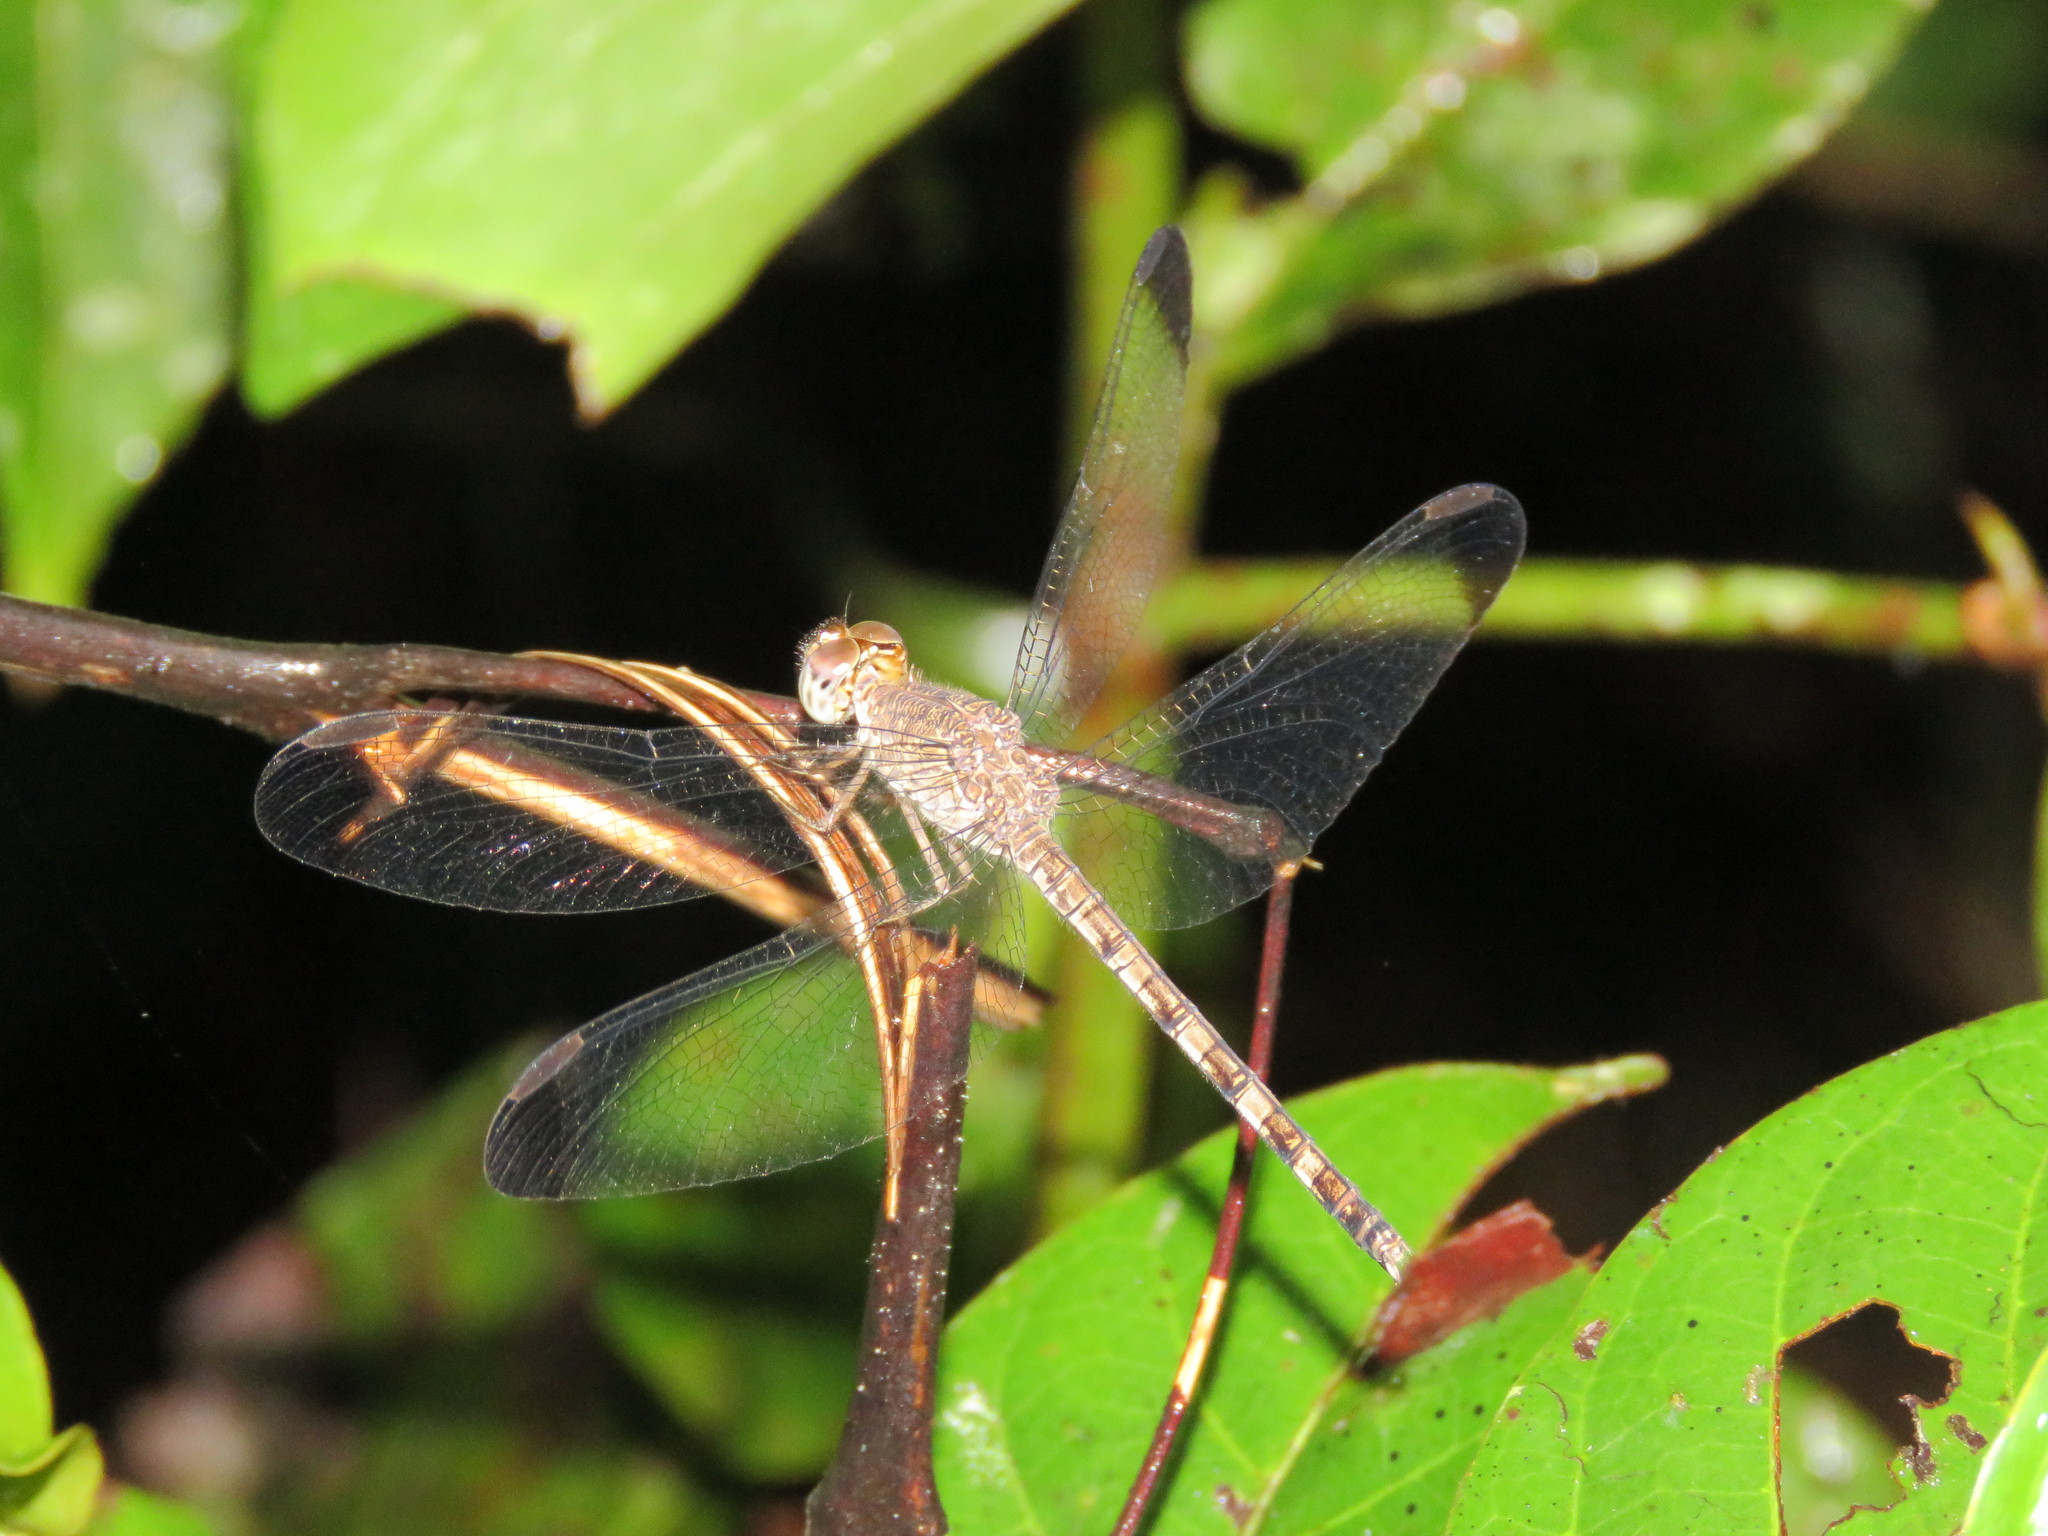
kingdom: Animalia
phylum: Arthropoda
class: Insecta
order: Odonata
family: Libellulidae
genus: Uracis
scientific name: Uracis imbuta
